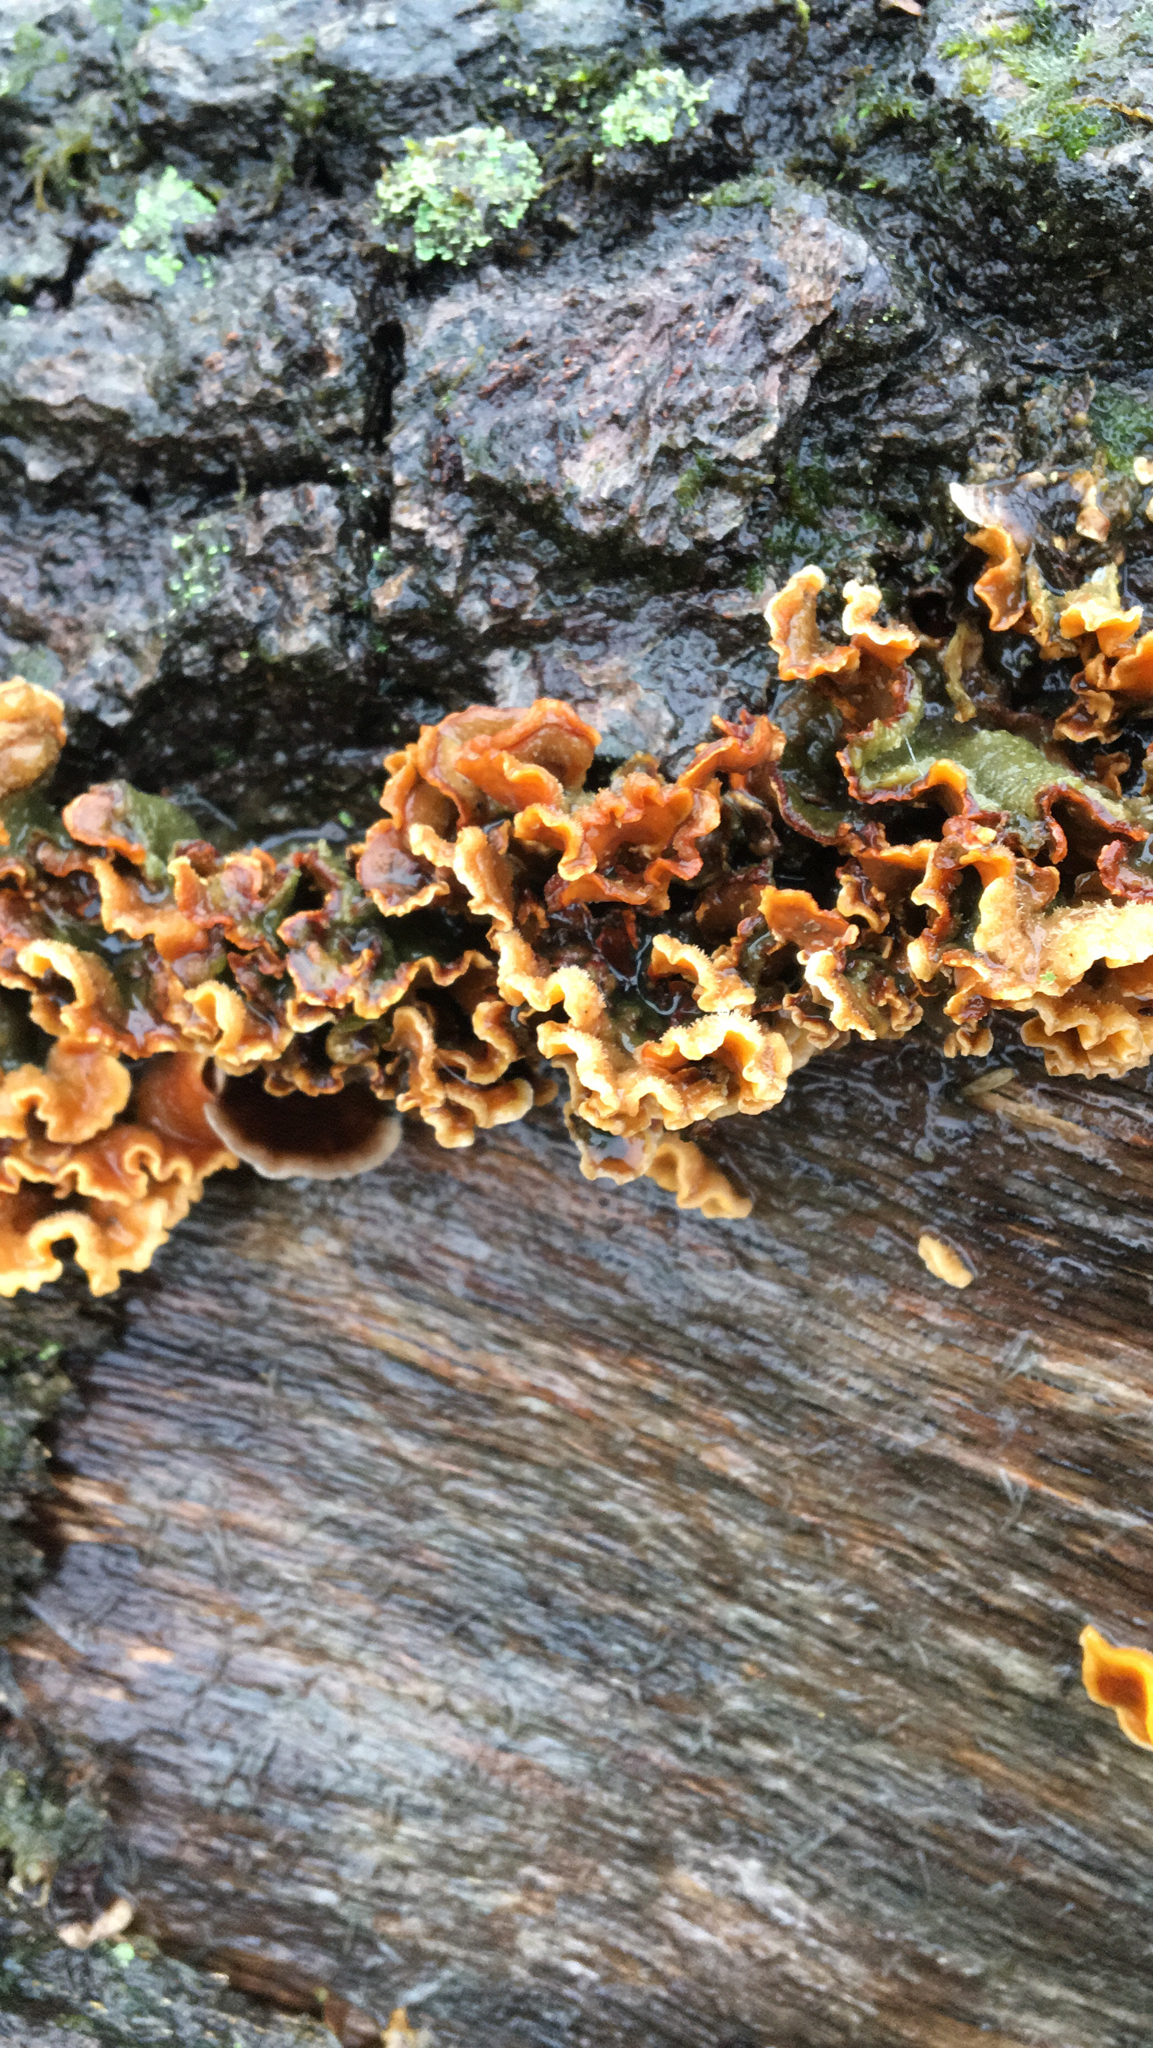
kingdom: Fungi
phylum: Basidiomycota
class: Agaricomycetes
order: Russulales
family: Stereaceae
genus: Stereum
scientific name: Stereum hirsutum
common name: Hairy curtain crust
